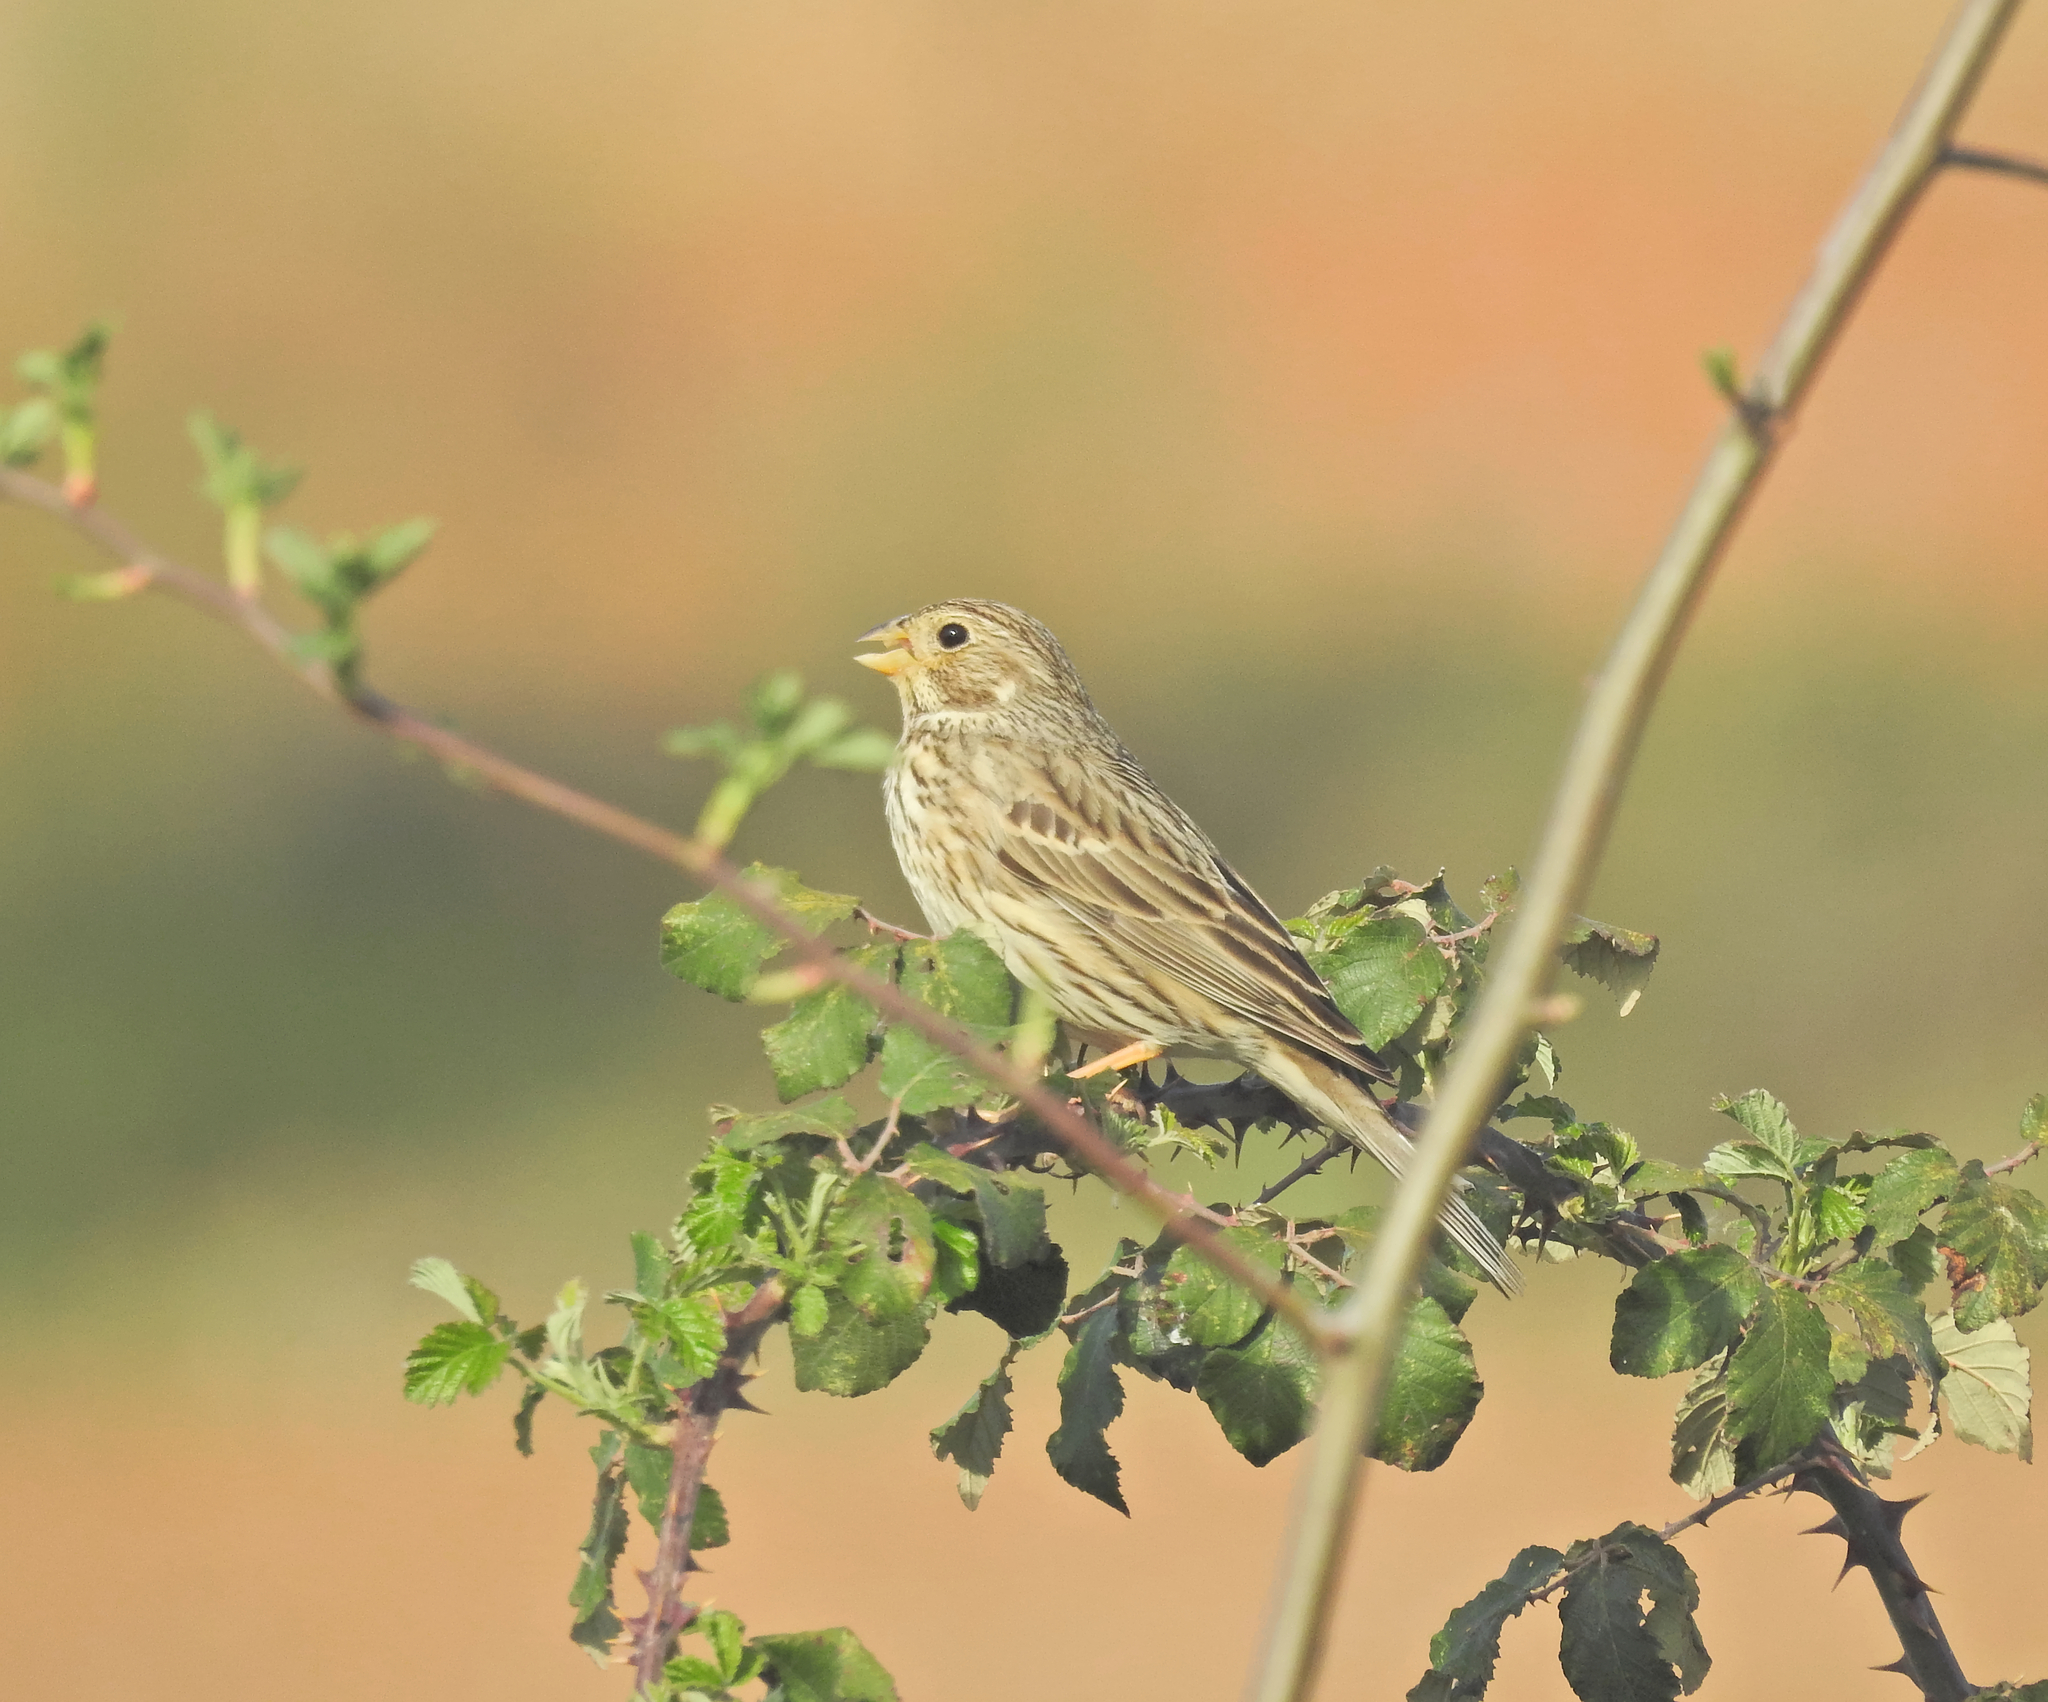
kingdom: Animalia
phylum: Chordata
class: Aves
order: Passeriformes
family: Emberizidae
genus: Emberiza
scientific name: Emberiza calandra
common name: Corn bunting
